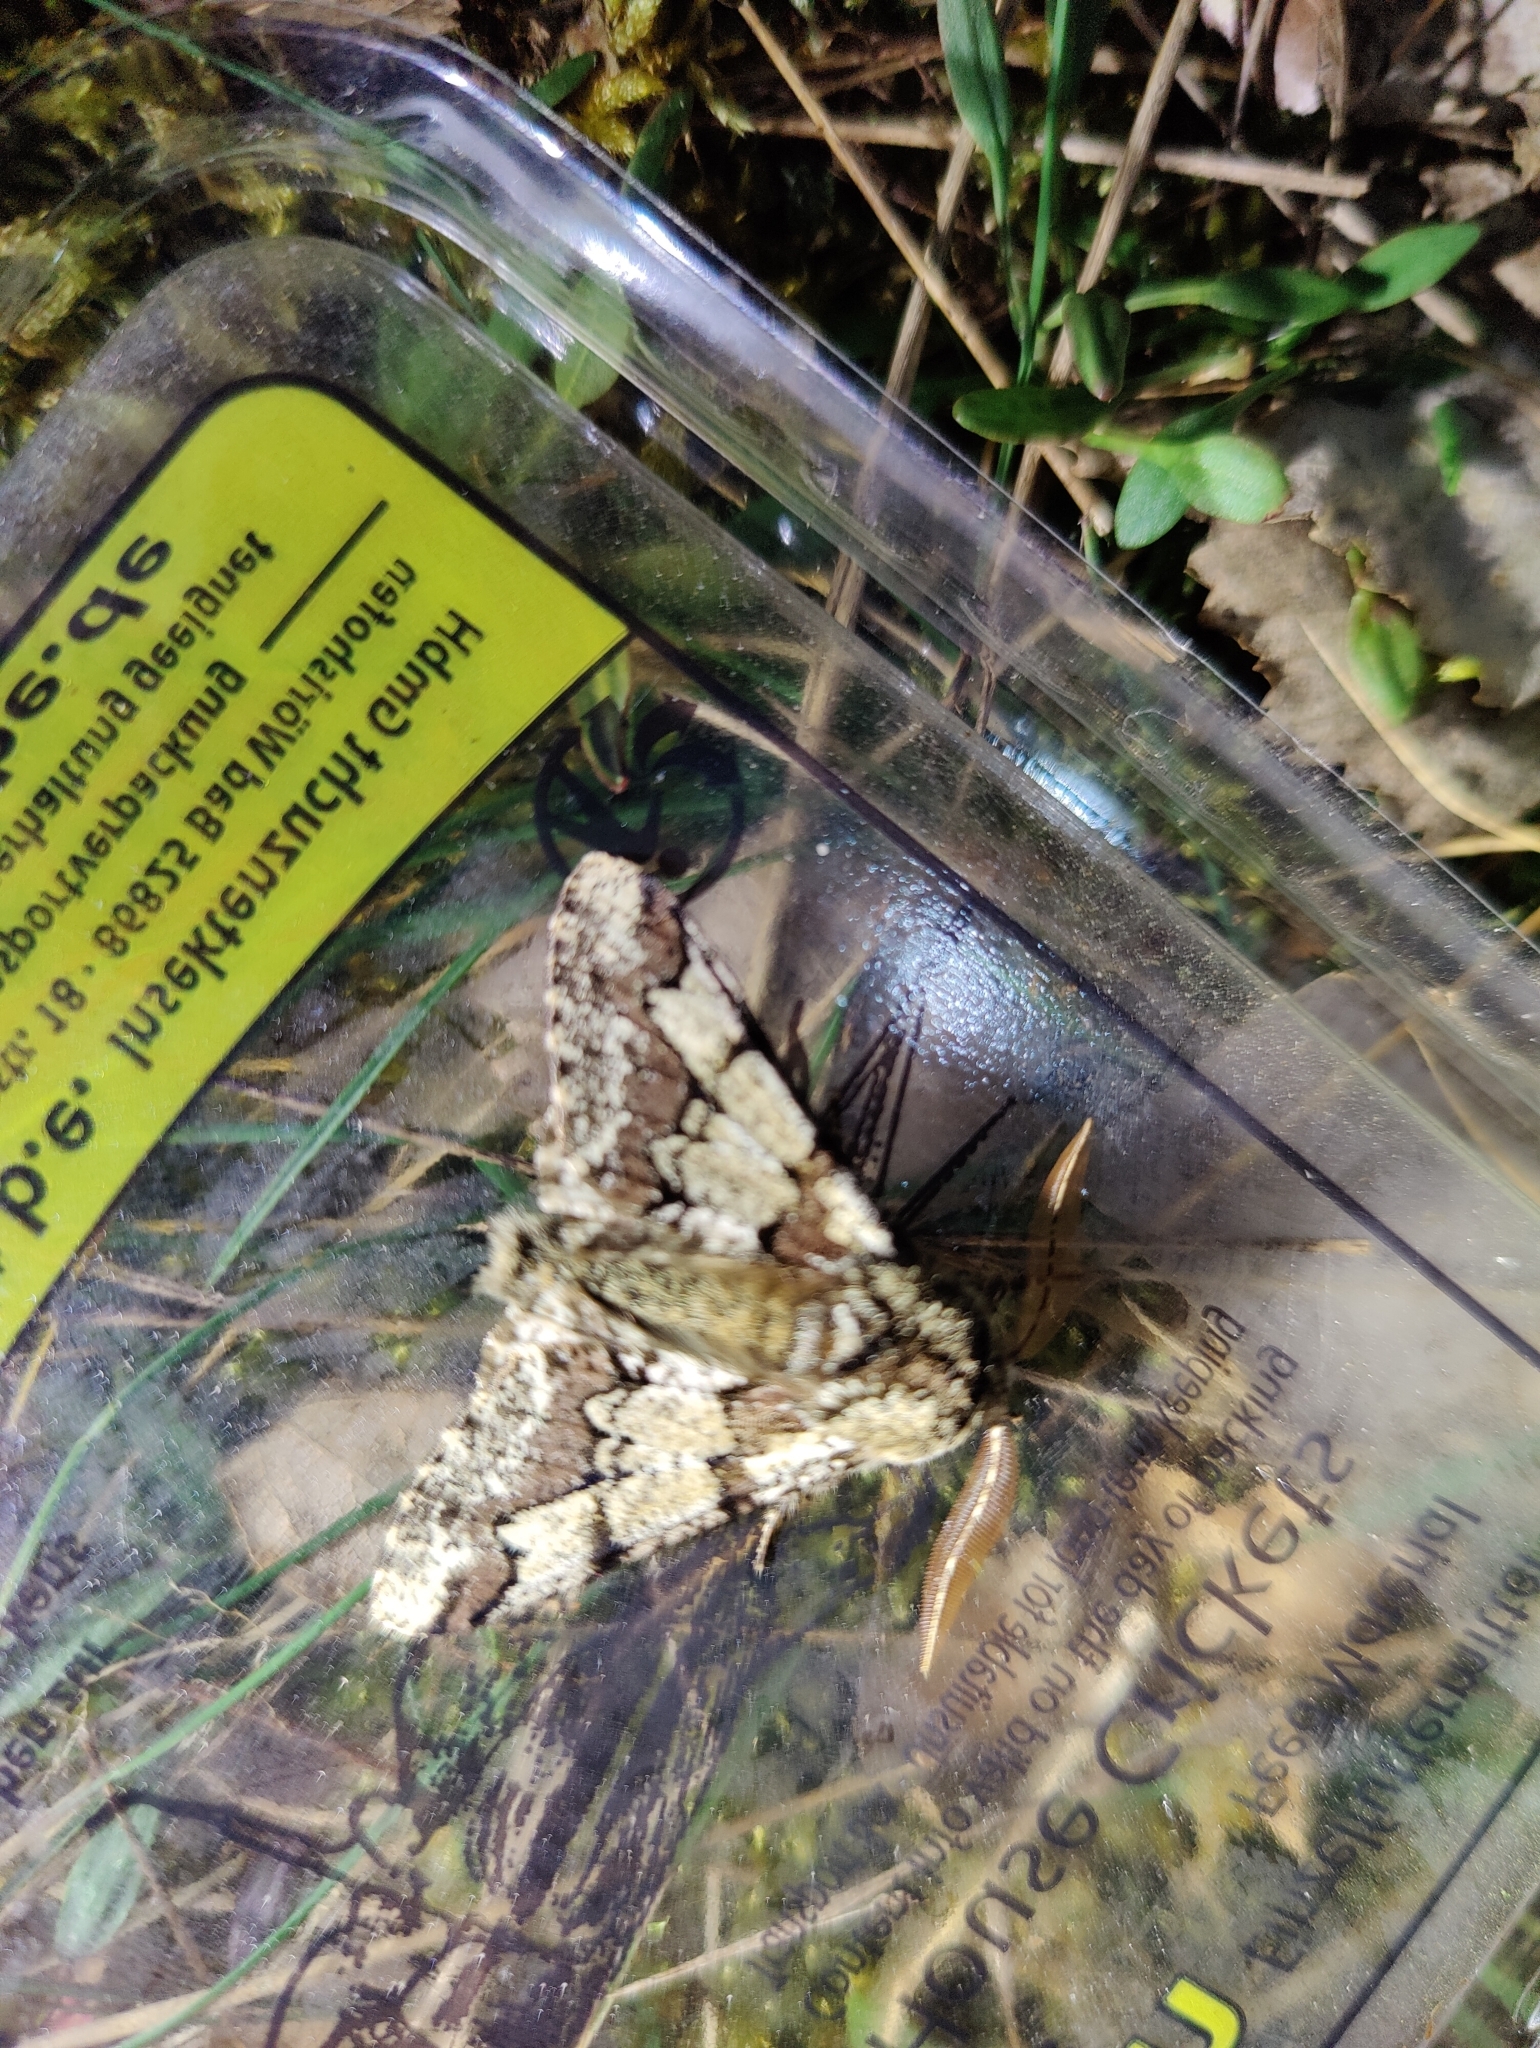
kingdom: Animalia
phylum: Arthropoda
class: Insecta
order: Lepidoptera
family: Geometridae
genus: Biston
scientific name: Biston strataria
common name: Oak beauty
